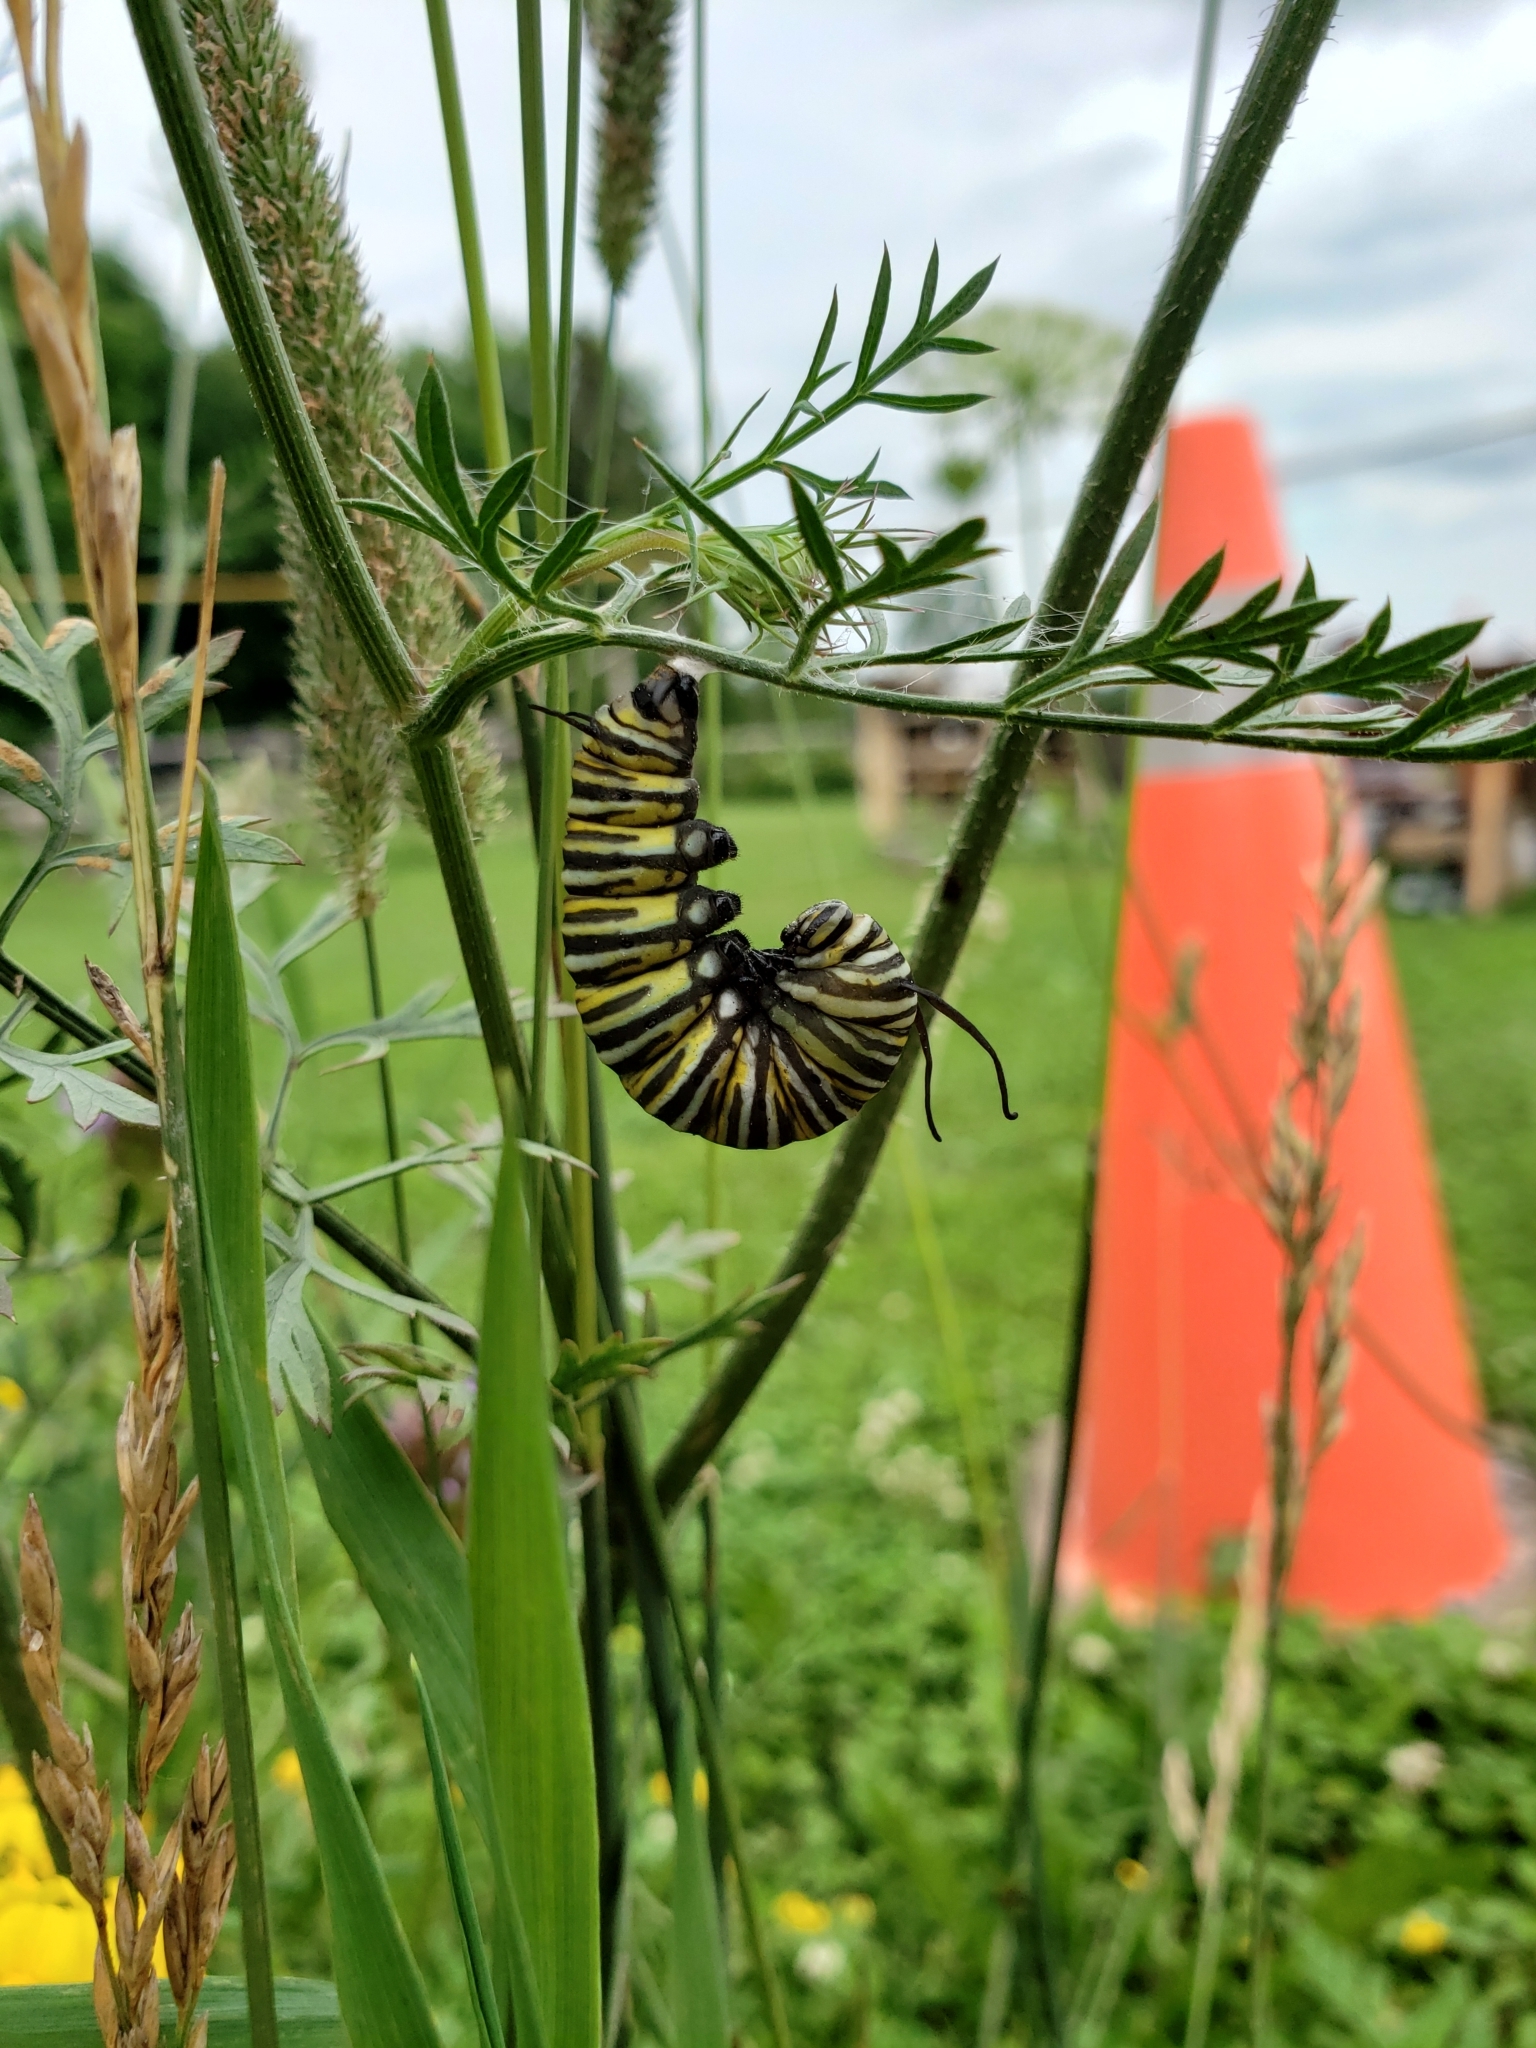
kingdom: Animalia
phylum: Arthropoda
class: Insecta
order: Lepidoptera
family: Nymphalidae
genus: Danaus
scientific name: Danaus plexippus
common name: Monarch
